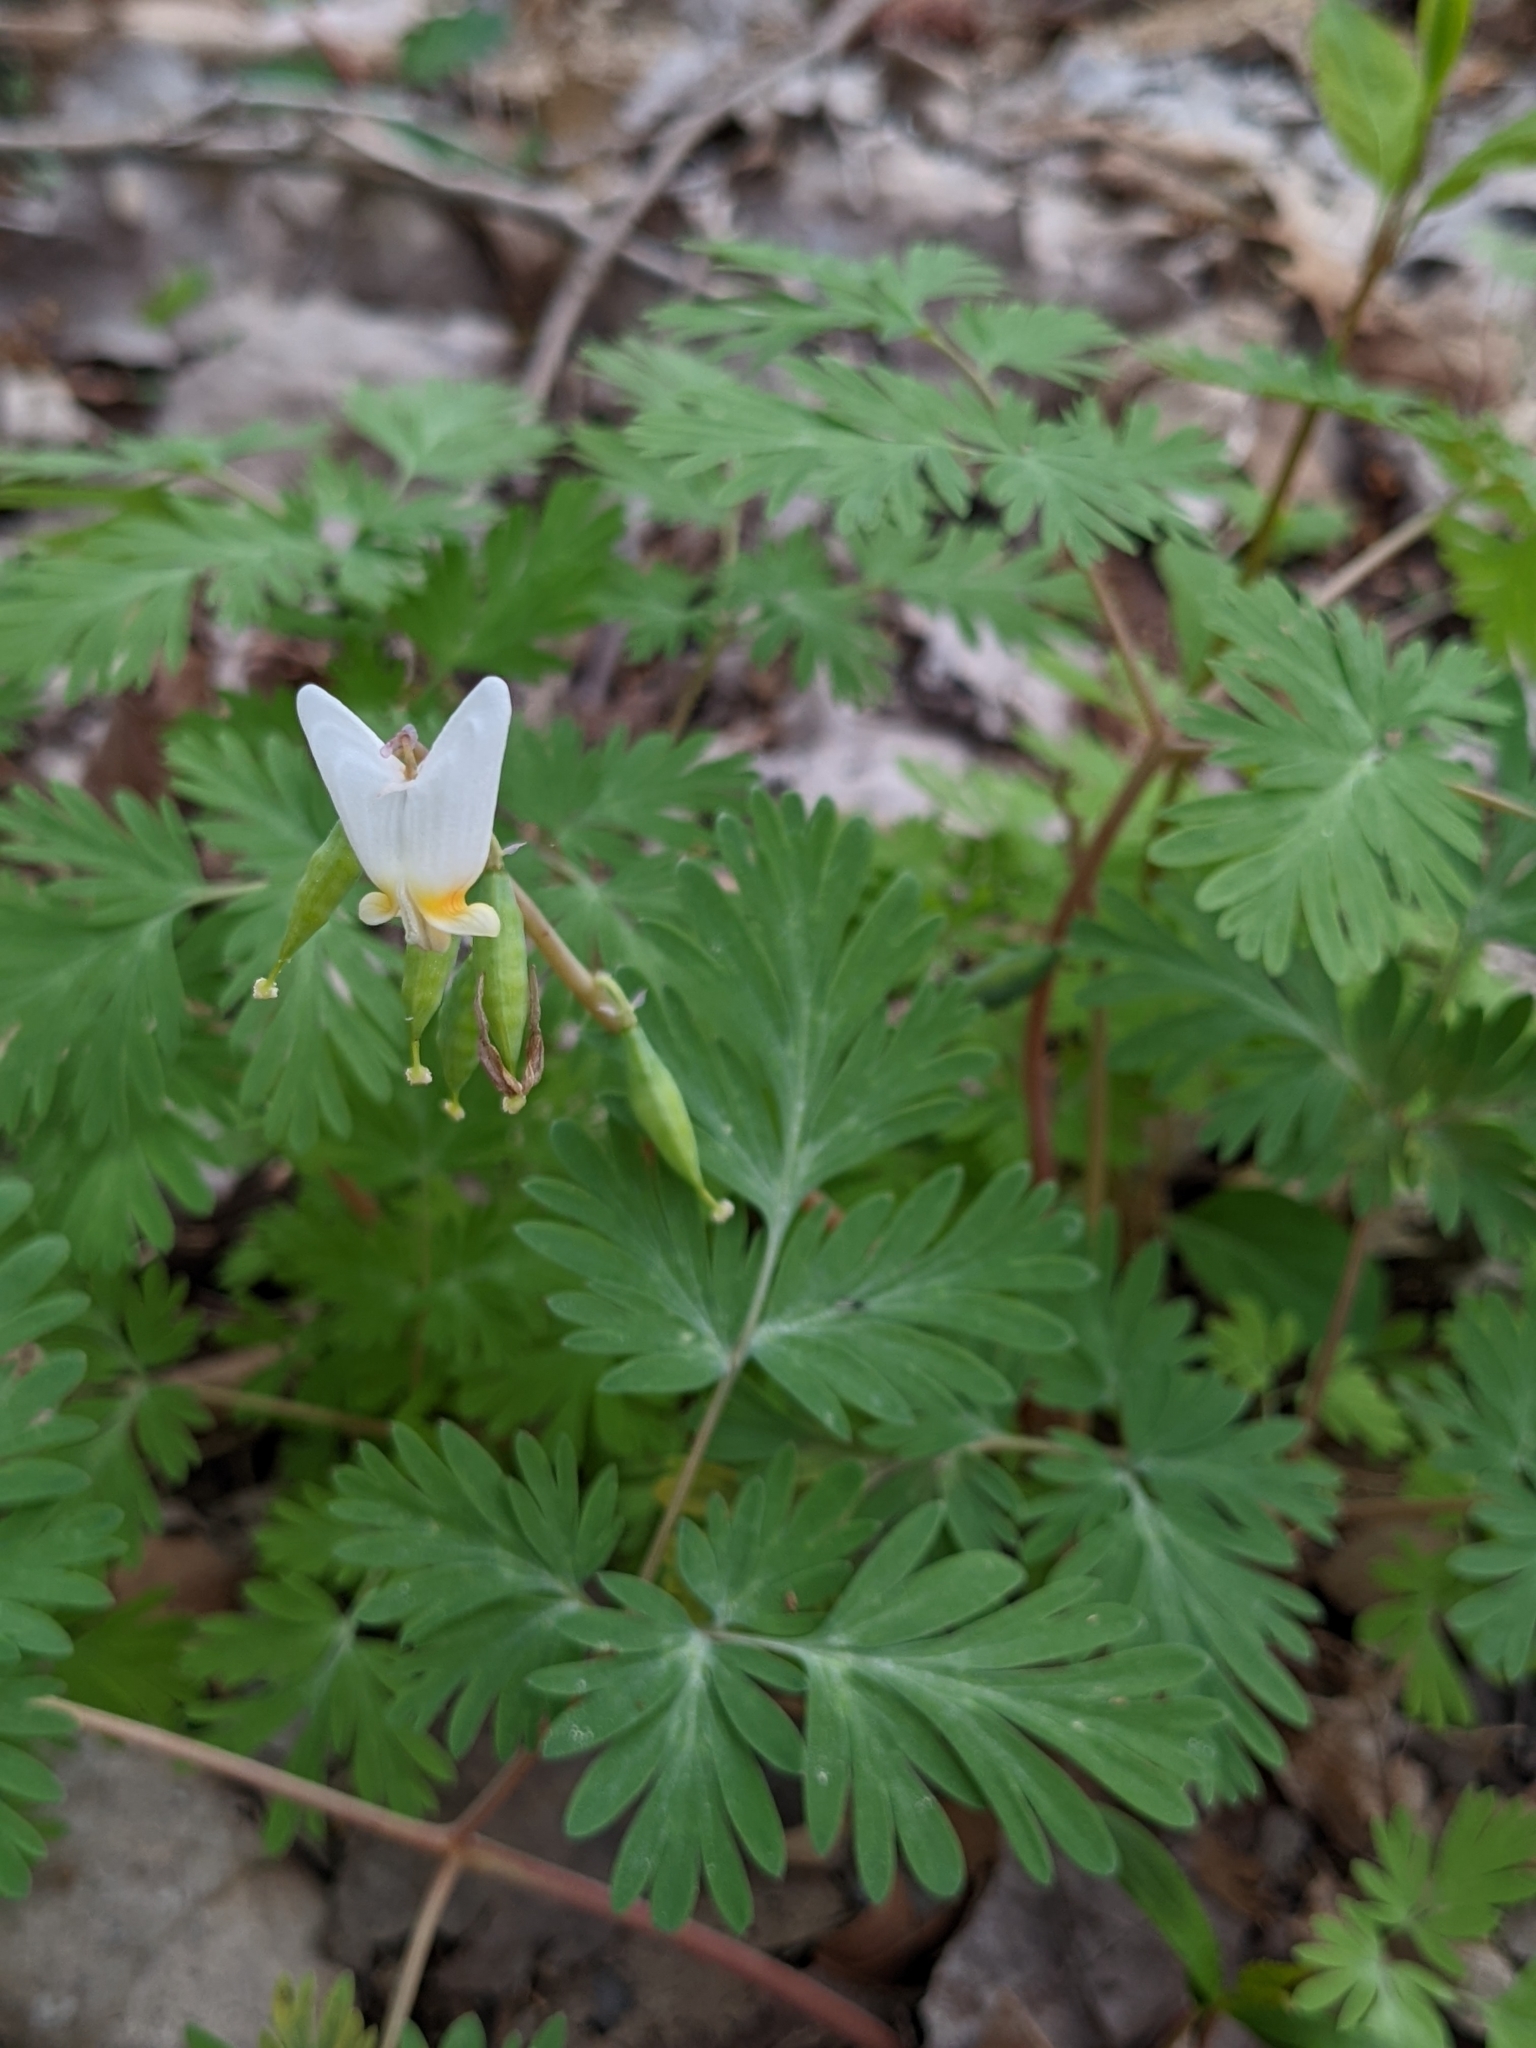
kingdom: Plantae
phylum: Tracheophyta
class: Magnoliopsida
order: Ranunculales
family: Papaveraceae
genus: Dicentra
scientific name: Dicentra cucullaria
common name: Dutchman's breeches
